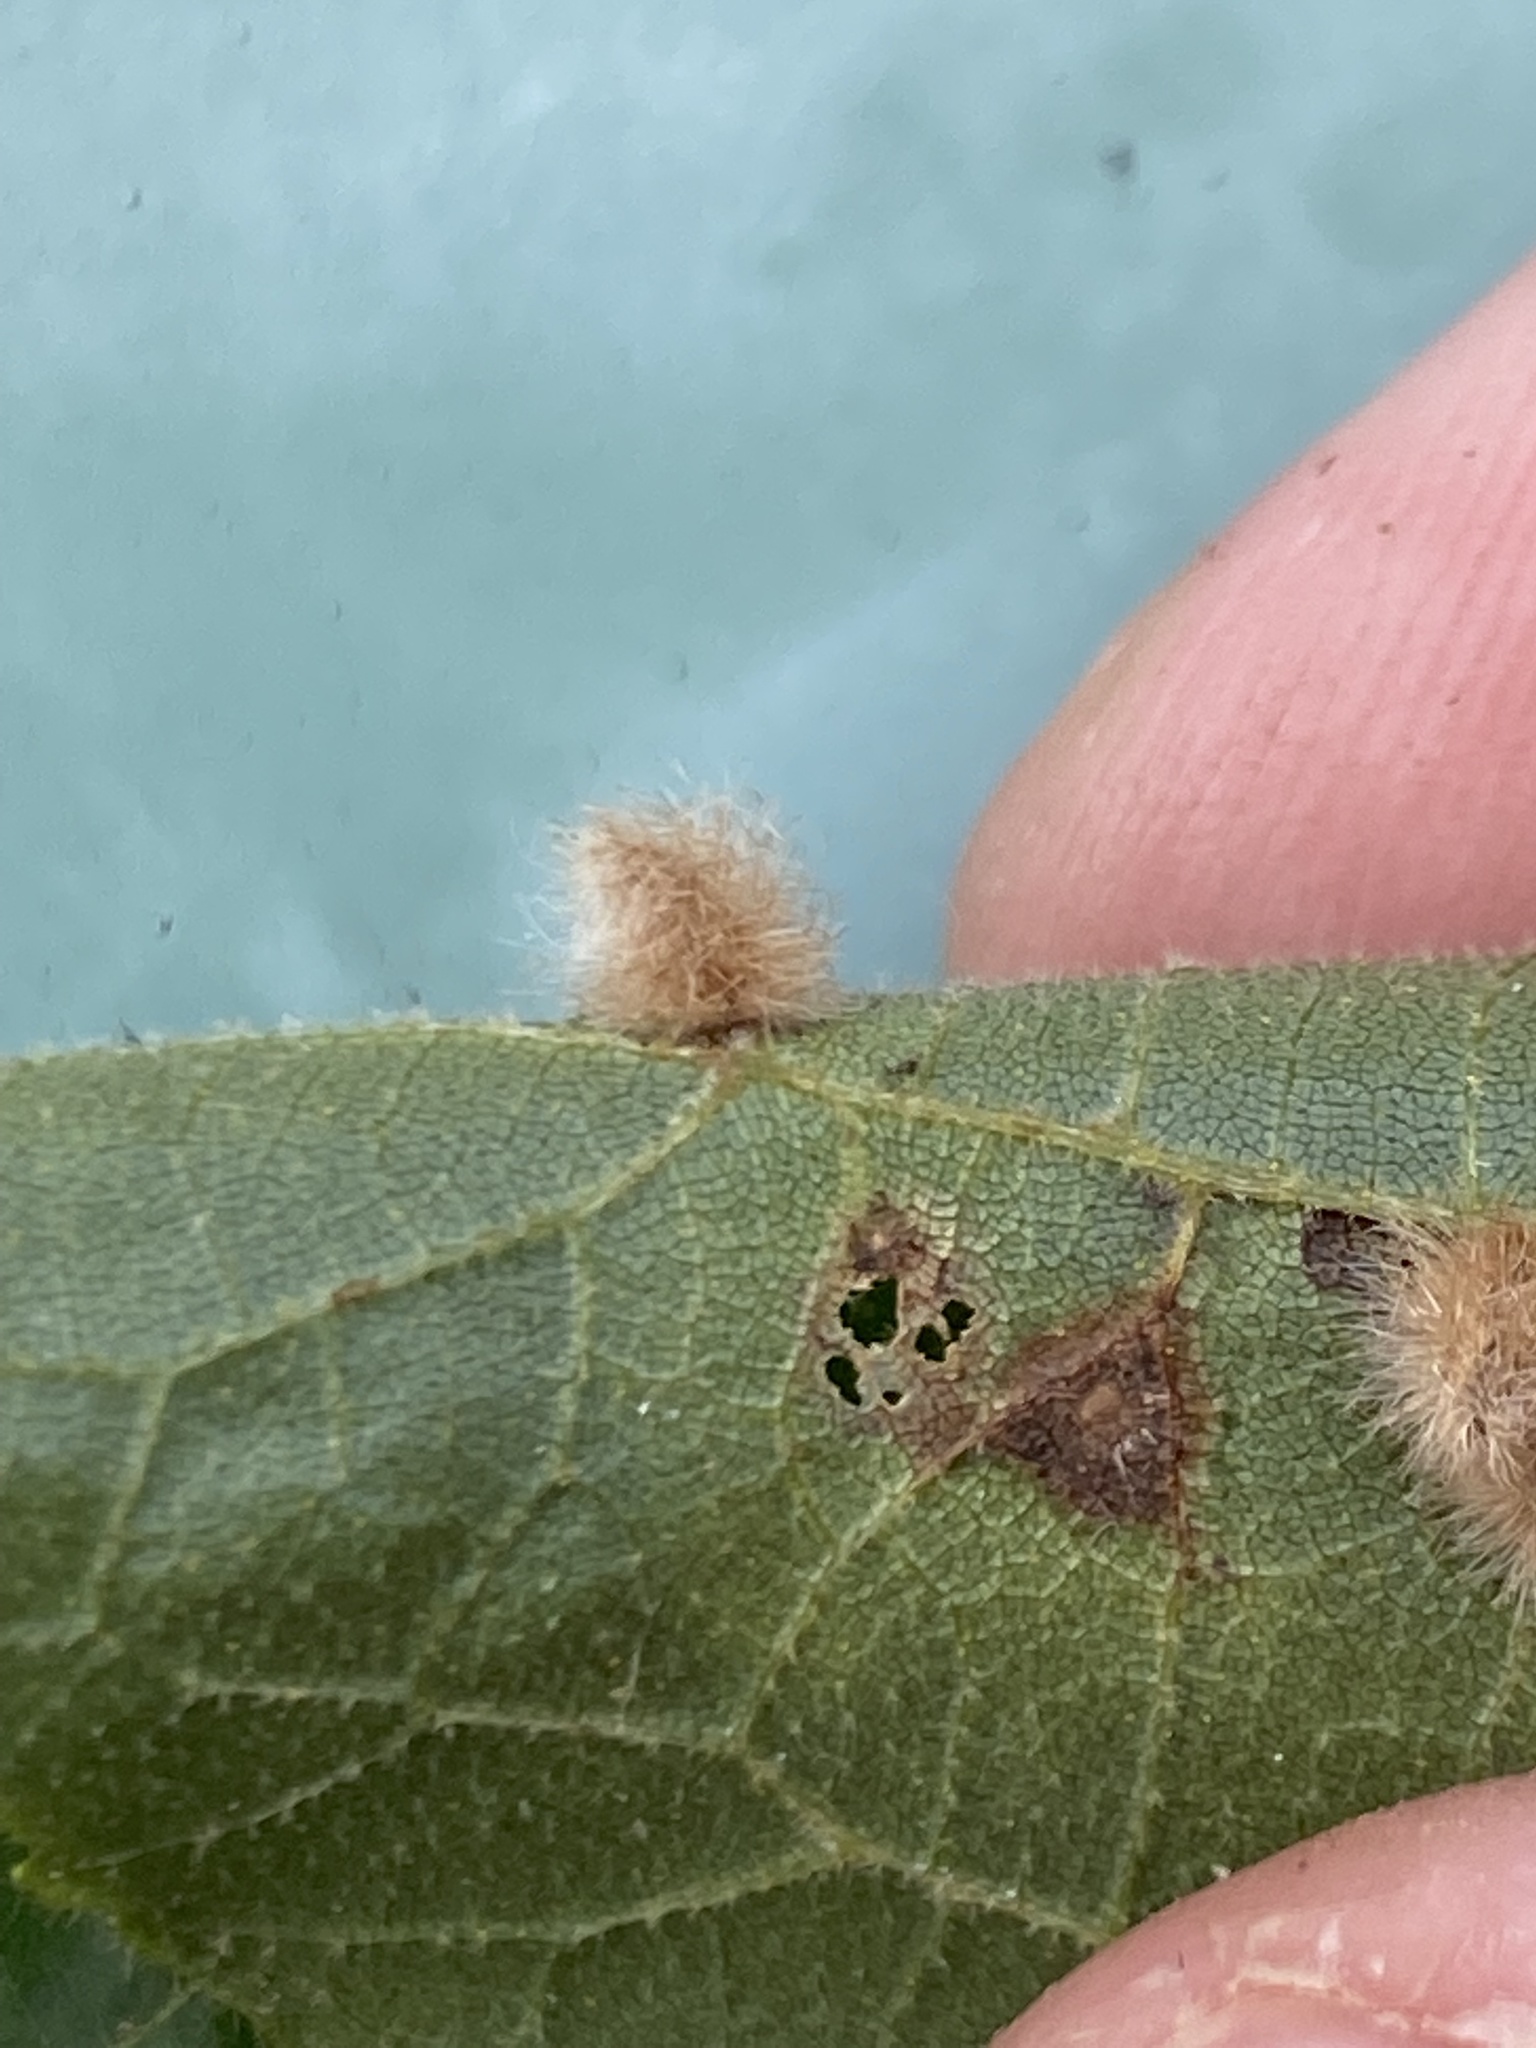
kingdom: Animalia
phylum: Arthropoda
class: Insecta
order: Diptera
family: Cecidomyiidae
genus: Caryomyia
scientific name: Caryomyia albipilosa
